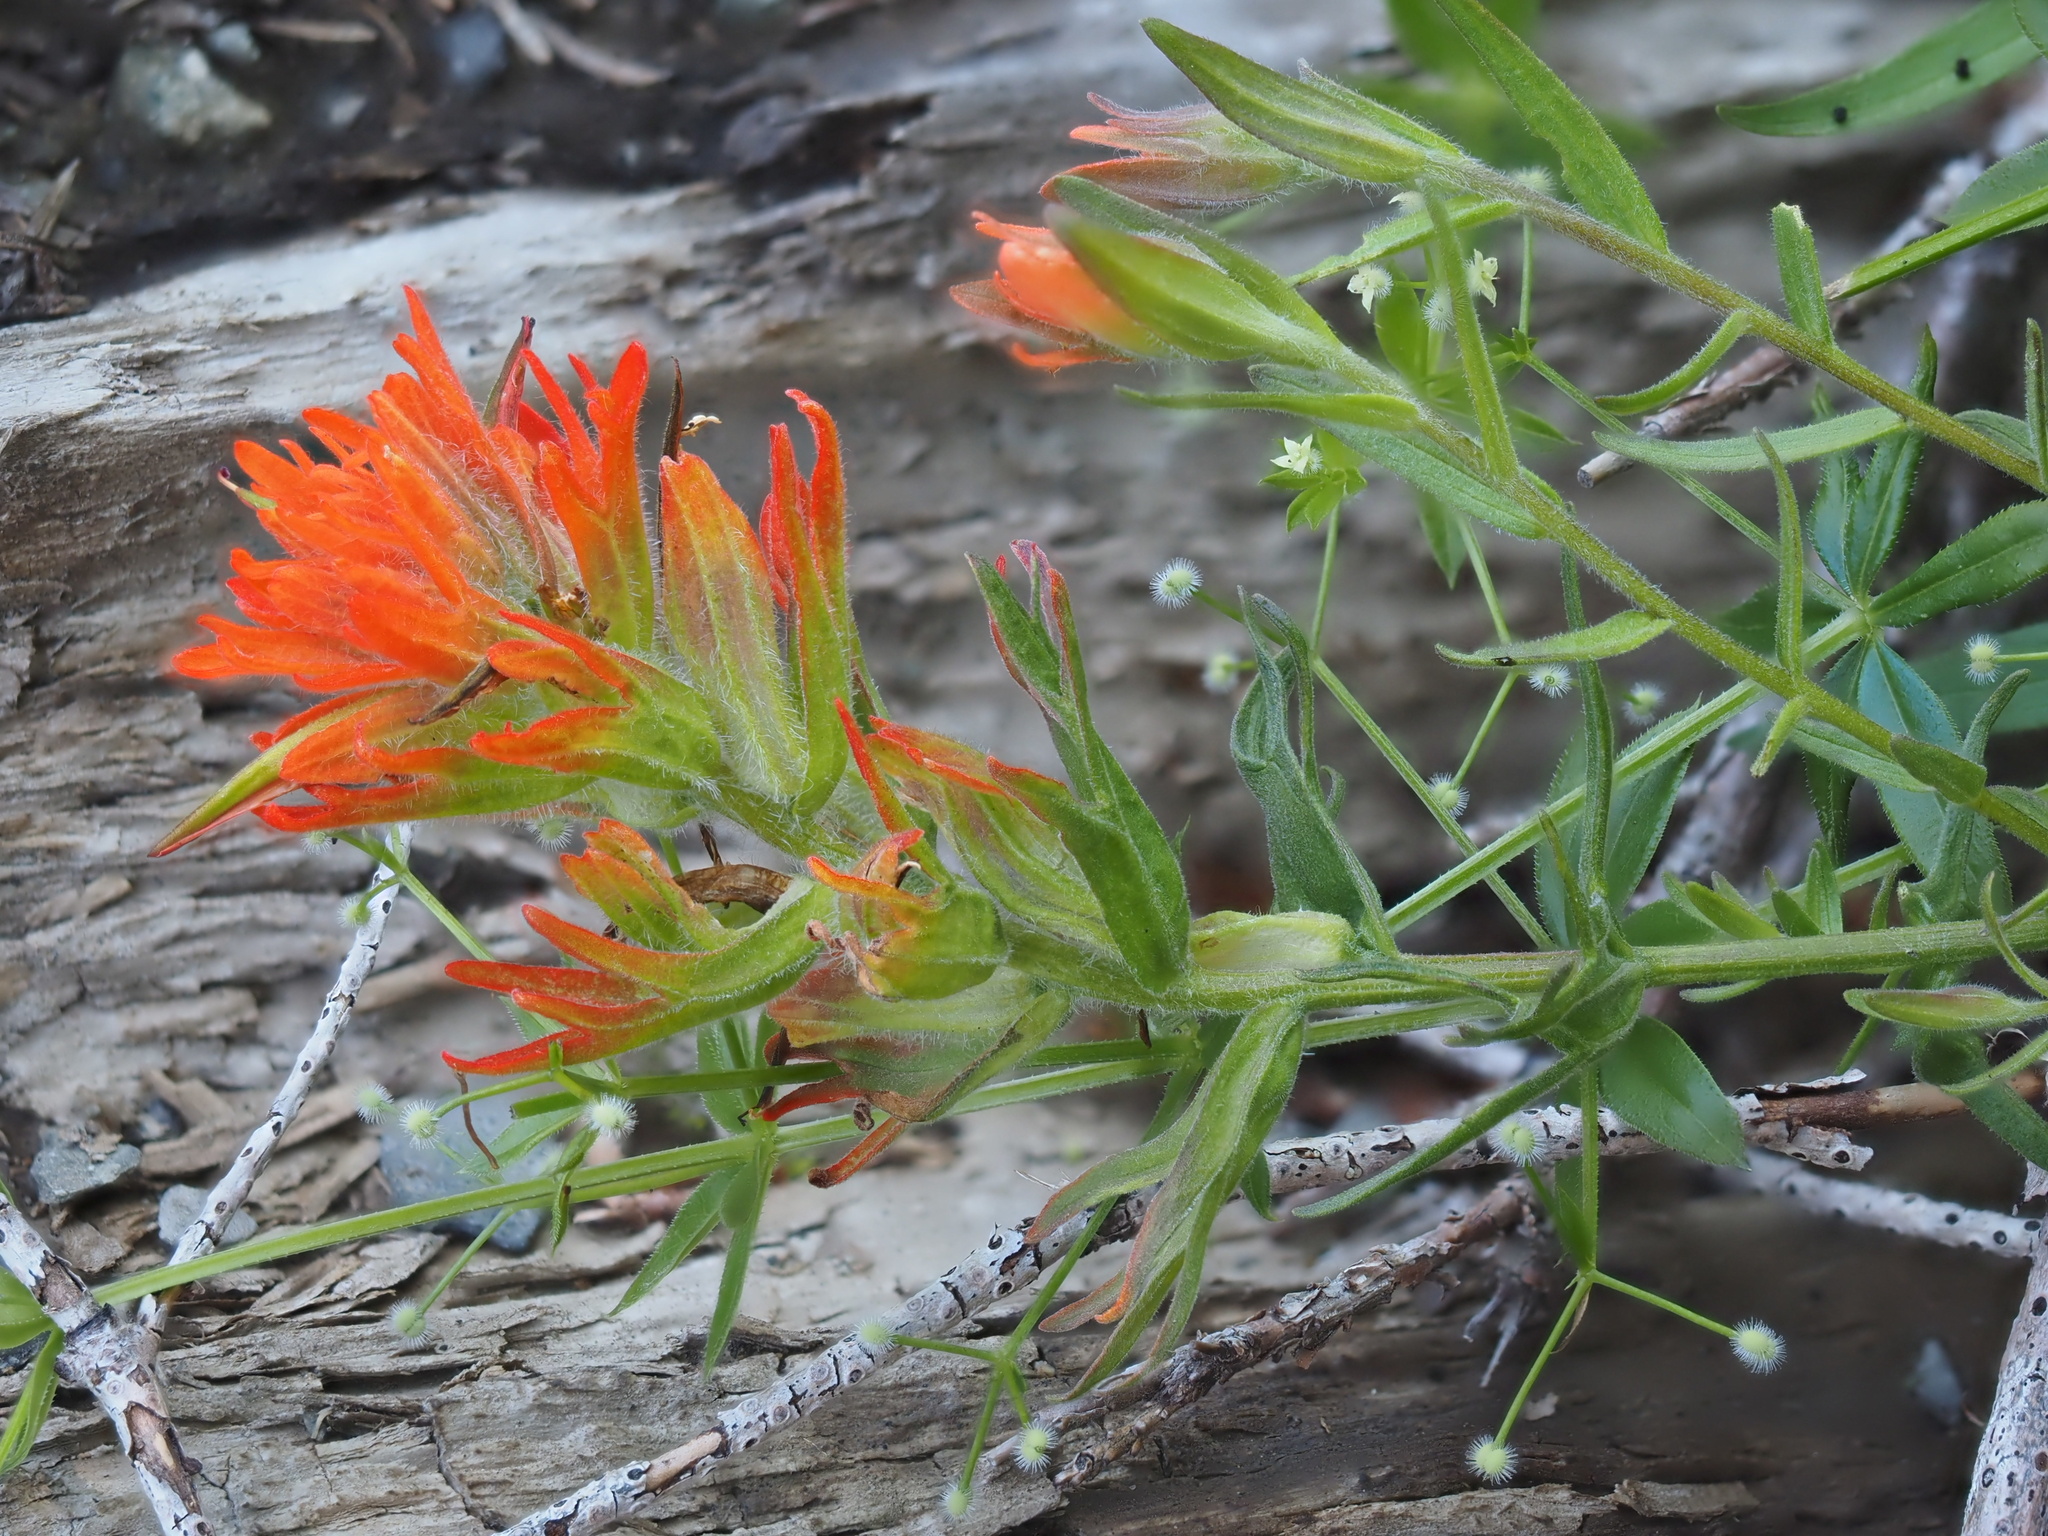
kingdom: Plantae
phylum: Tracheophyta
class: Magnoliopsida
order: Lamiales
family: Orobanchaceae
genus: Castilleja
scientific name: Castilleja hispida
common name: Bristly paintbrush
